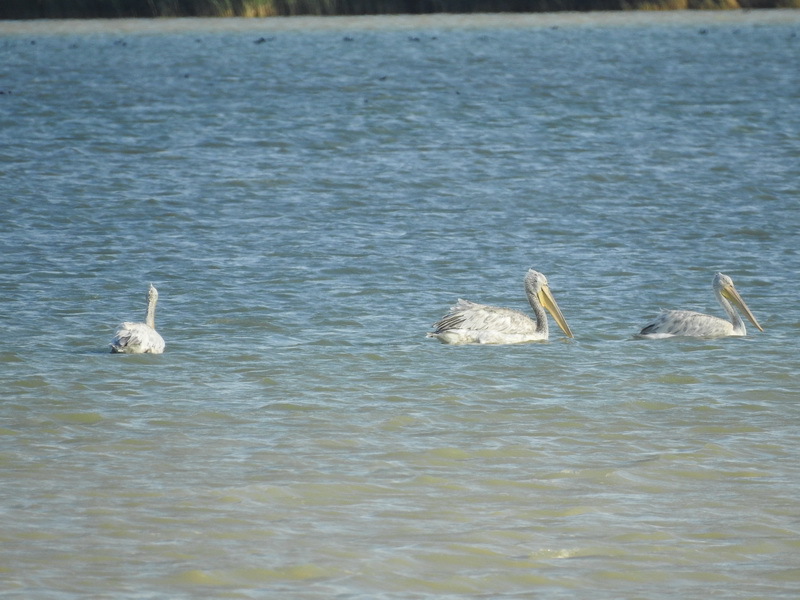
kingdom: Animalia
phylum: Chordata
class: Aves
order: Pelecaniformes
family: Pelecanidae
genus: Pelecanus
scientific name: Pelecanus crispus
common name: Dalmatian pelican
